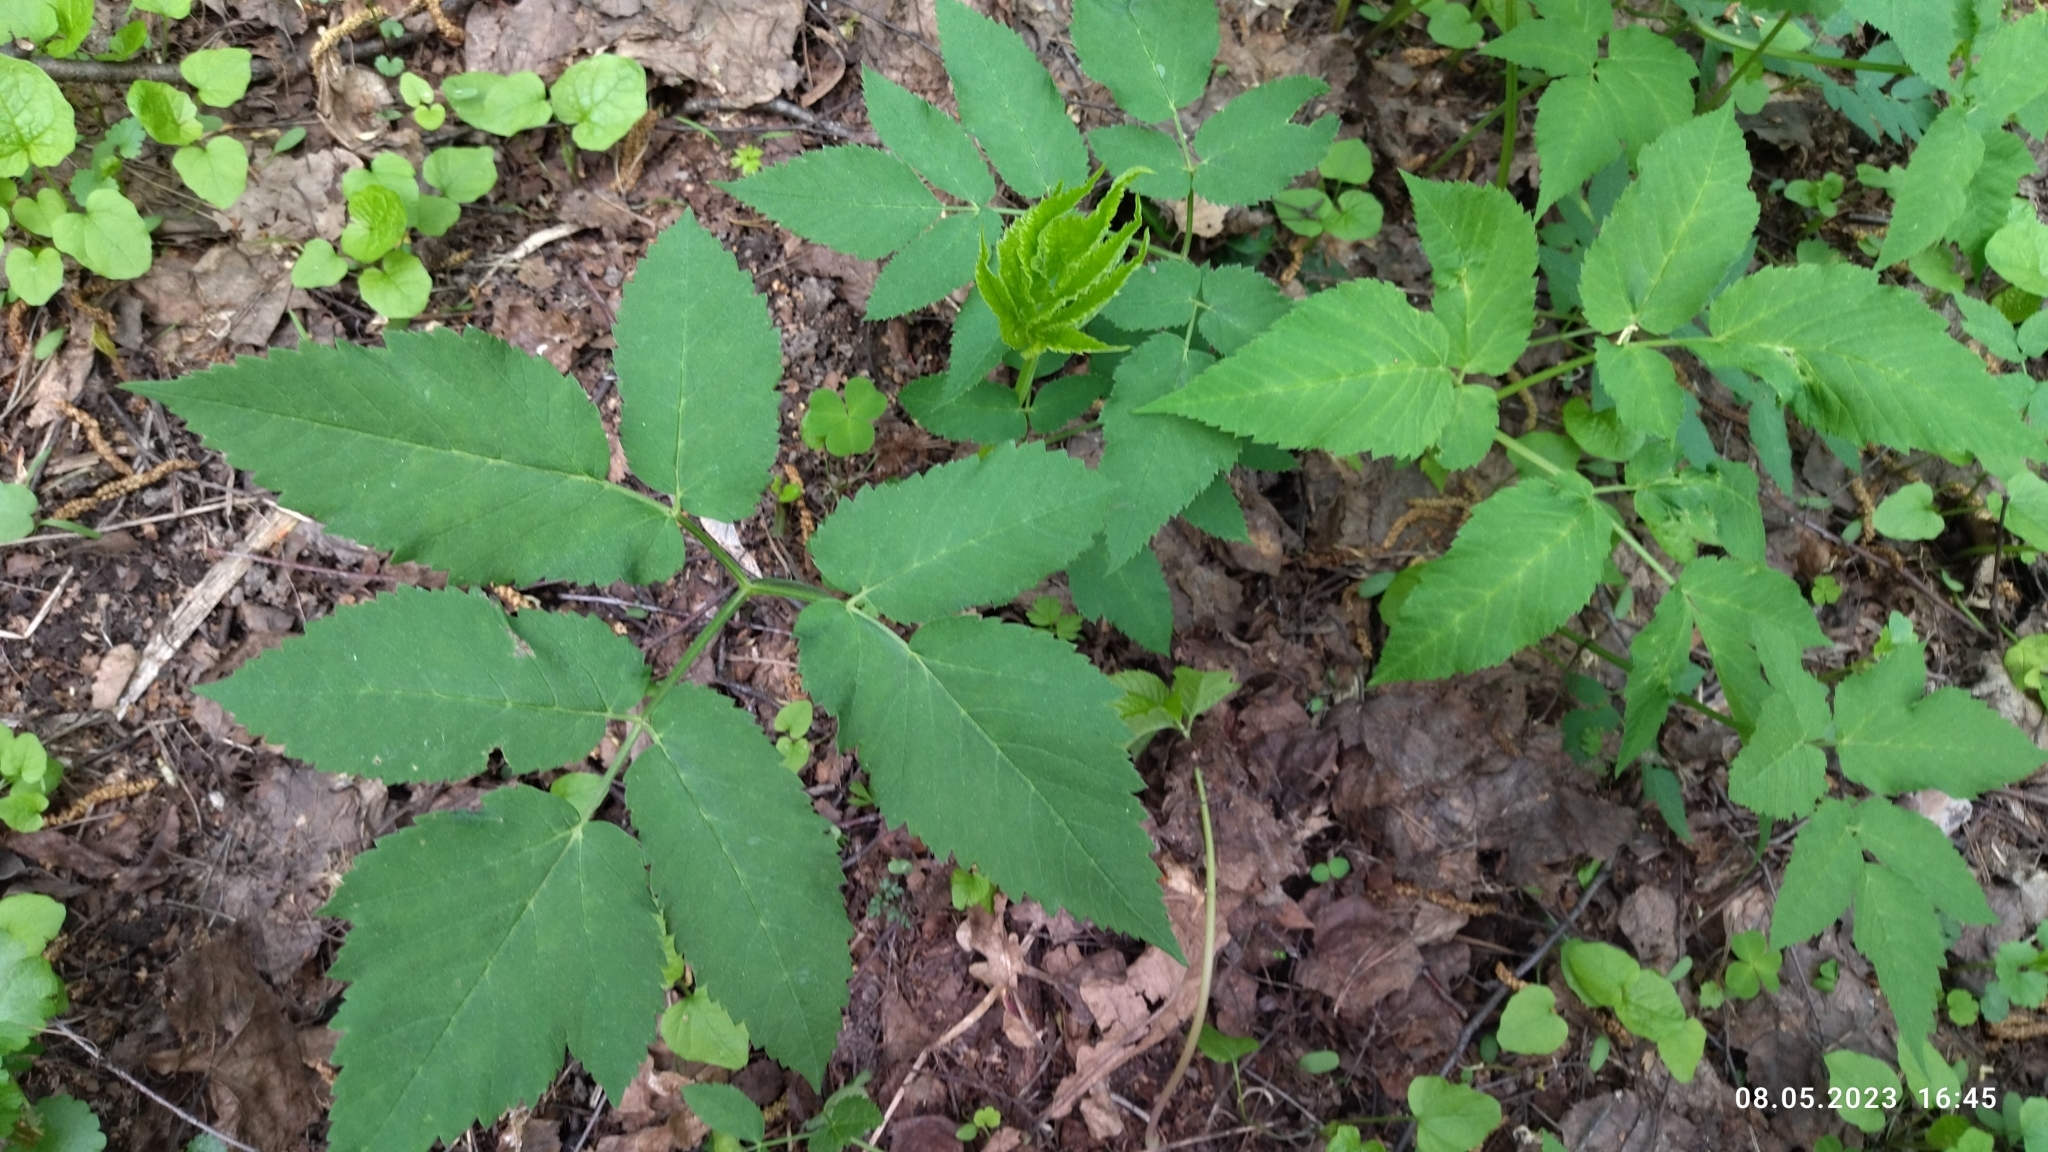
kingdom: Plantae
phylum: Tracheophyta
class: Magnoliopsida
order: Apiales
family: Apiaceae
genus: Aegopodium
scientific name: Aegopodium podagraria
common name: Ground-elder
